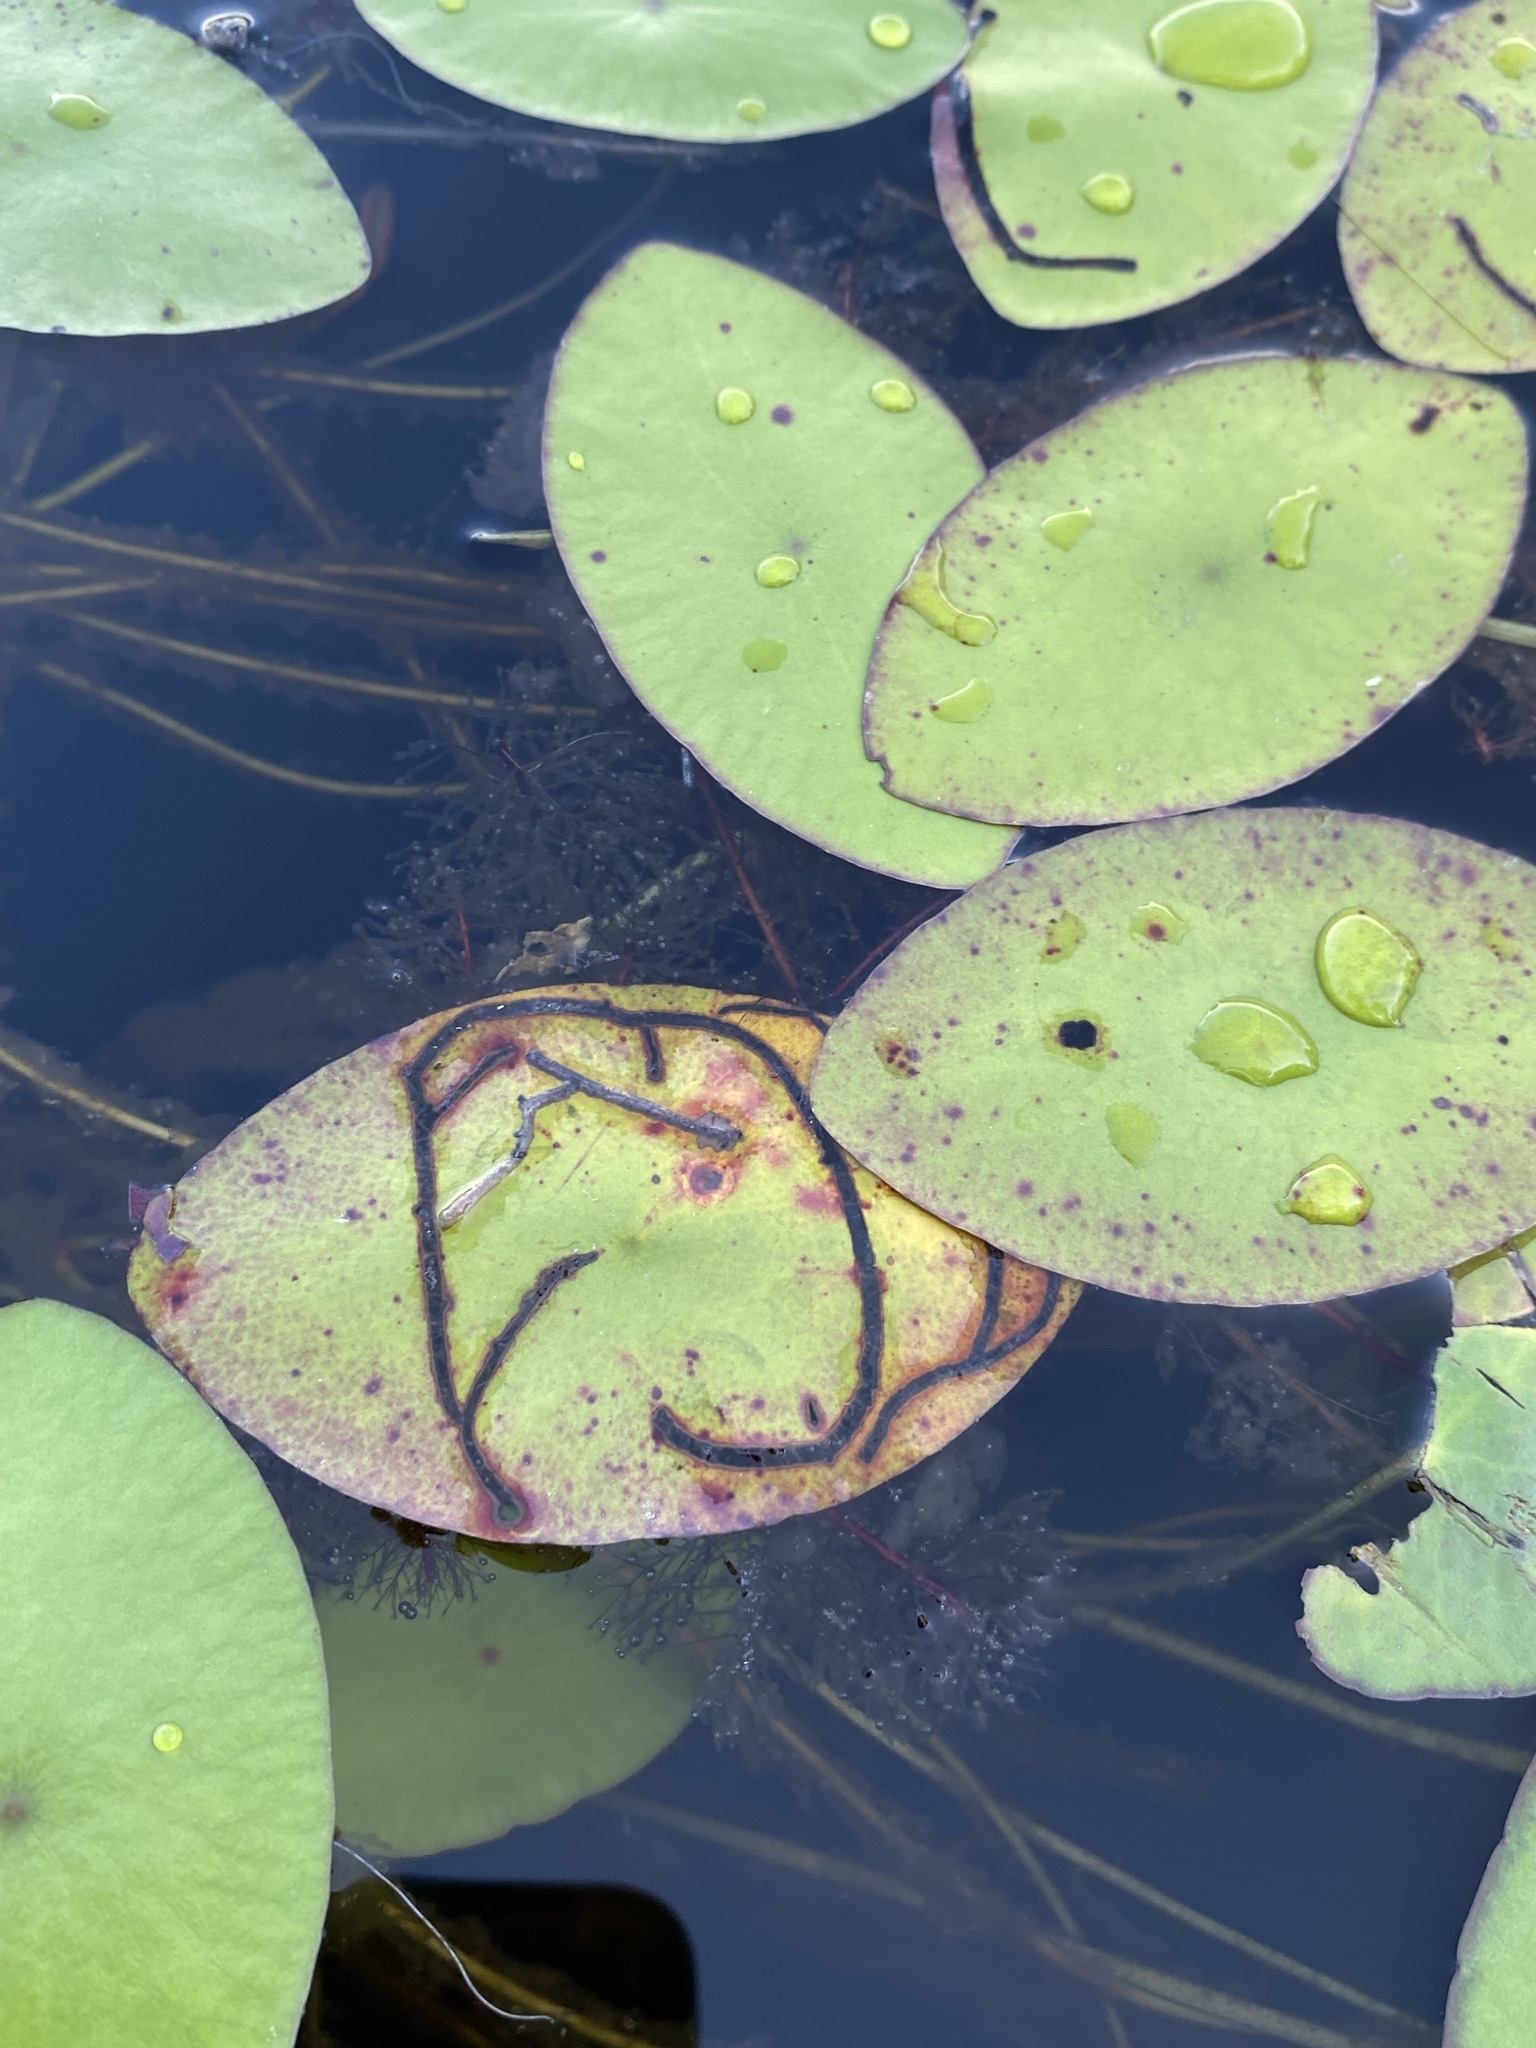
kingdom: Animalia
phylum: Arthropoda
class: Insecta
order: Diptera
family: Chironomidae
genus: Polypedilum
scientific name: Polypedilum braseniae
